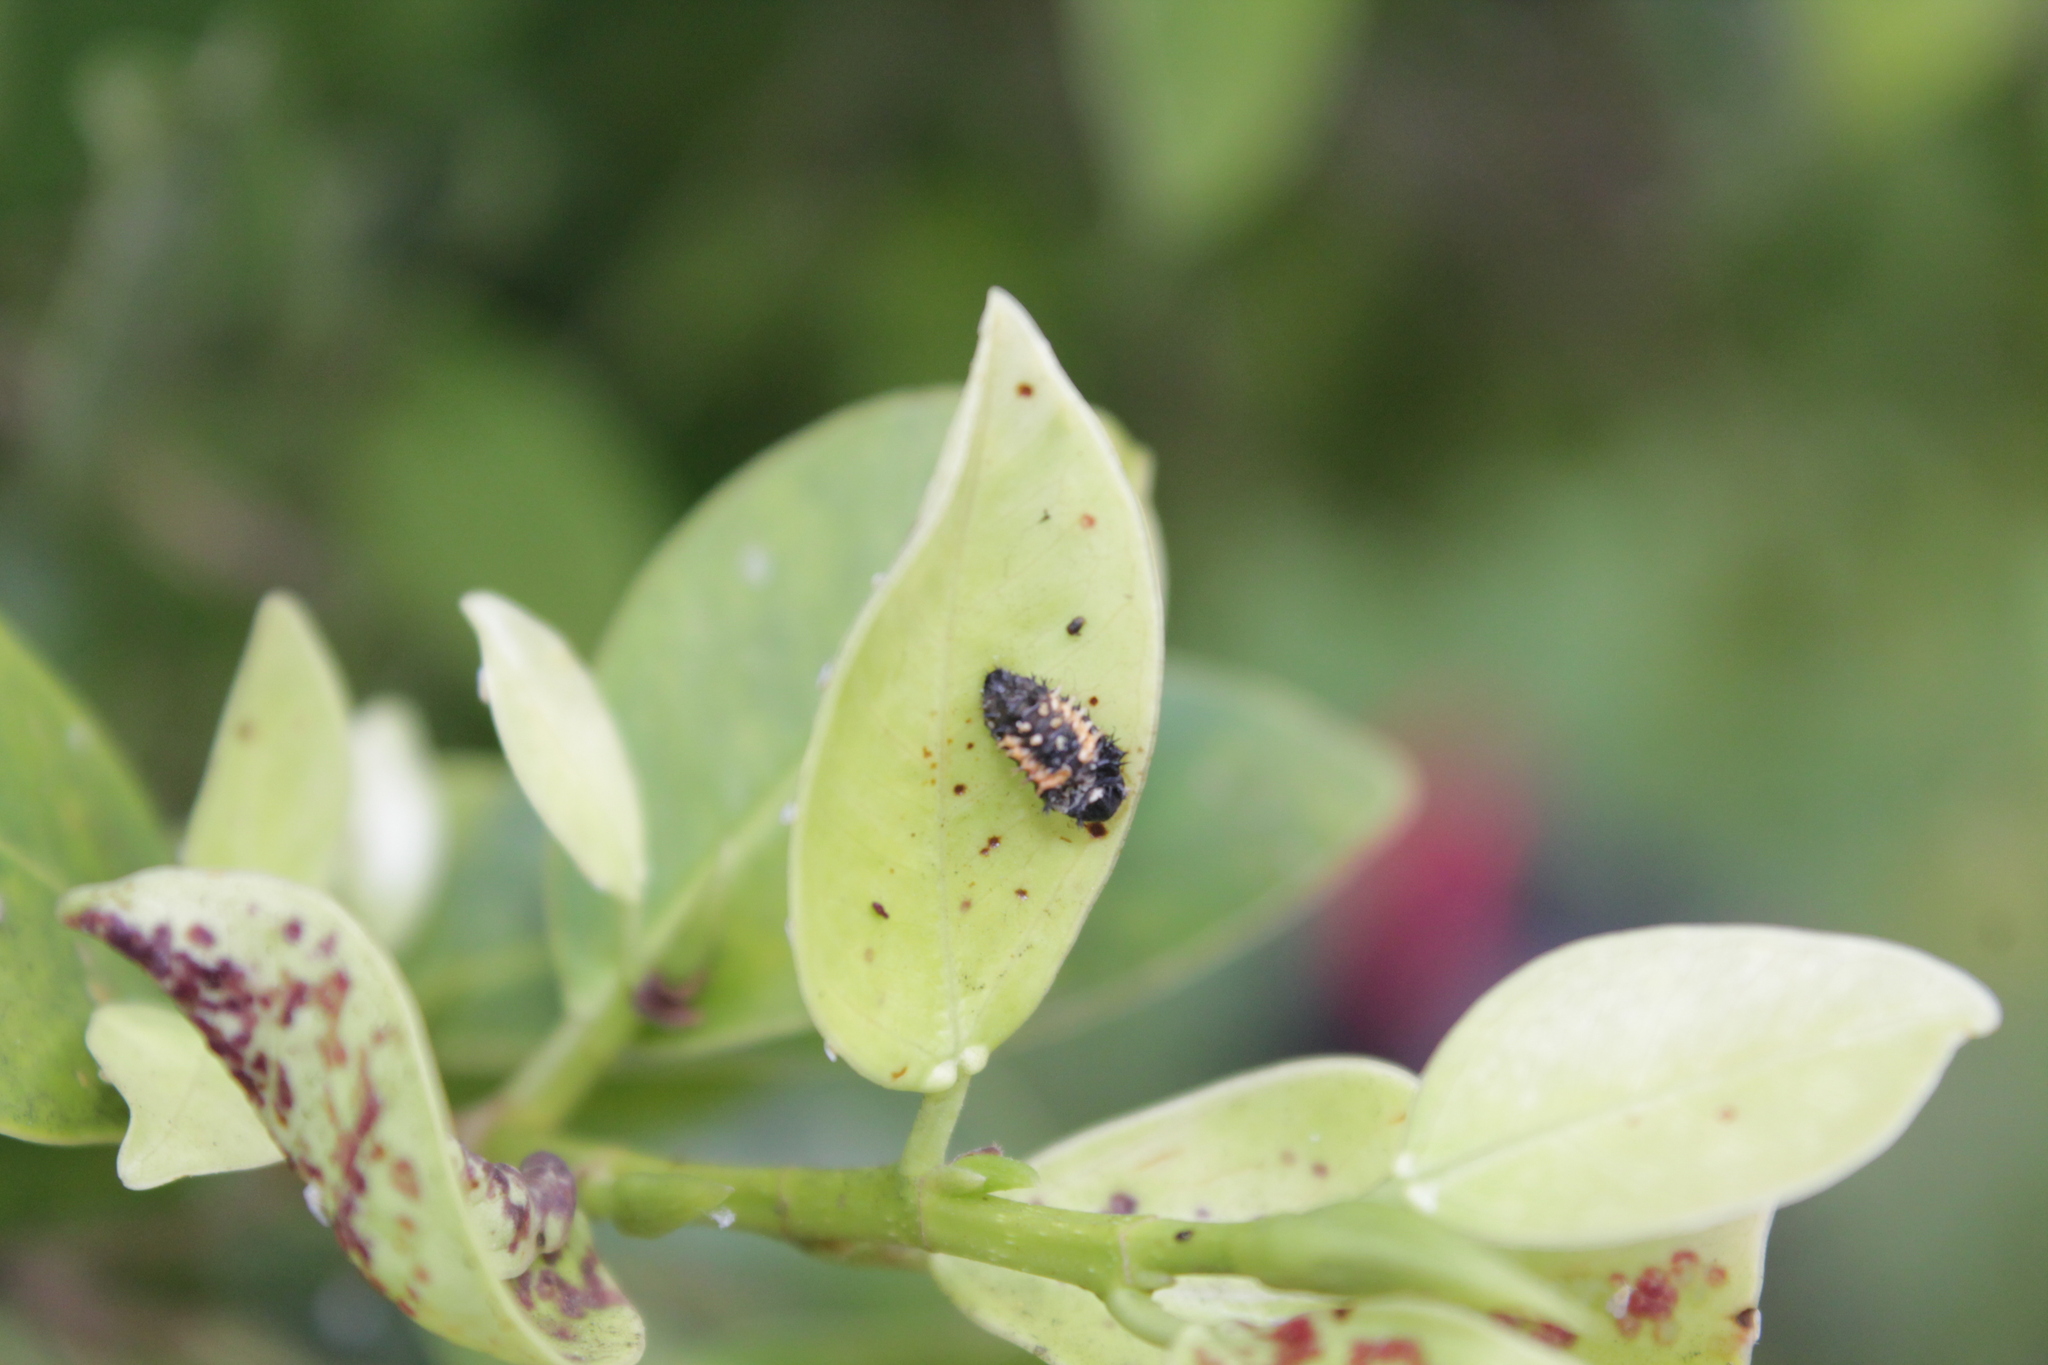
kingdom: Animalia
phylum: Arthropoda
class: Insecta
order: Coleoptera
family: Coccinellidae
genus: Harmonia
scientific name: Harmonia axyridis
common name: Harlequin ladybird
